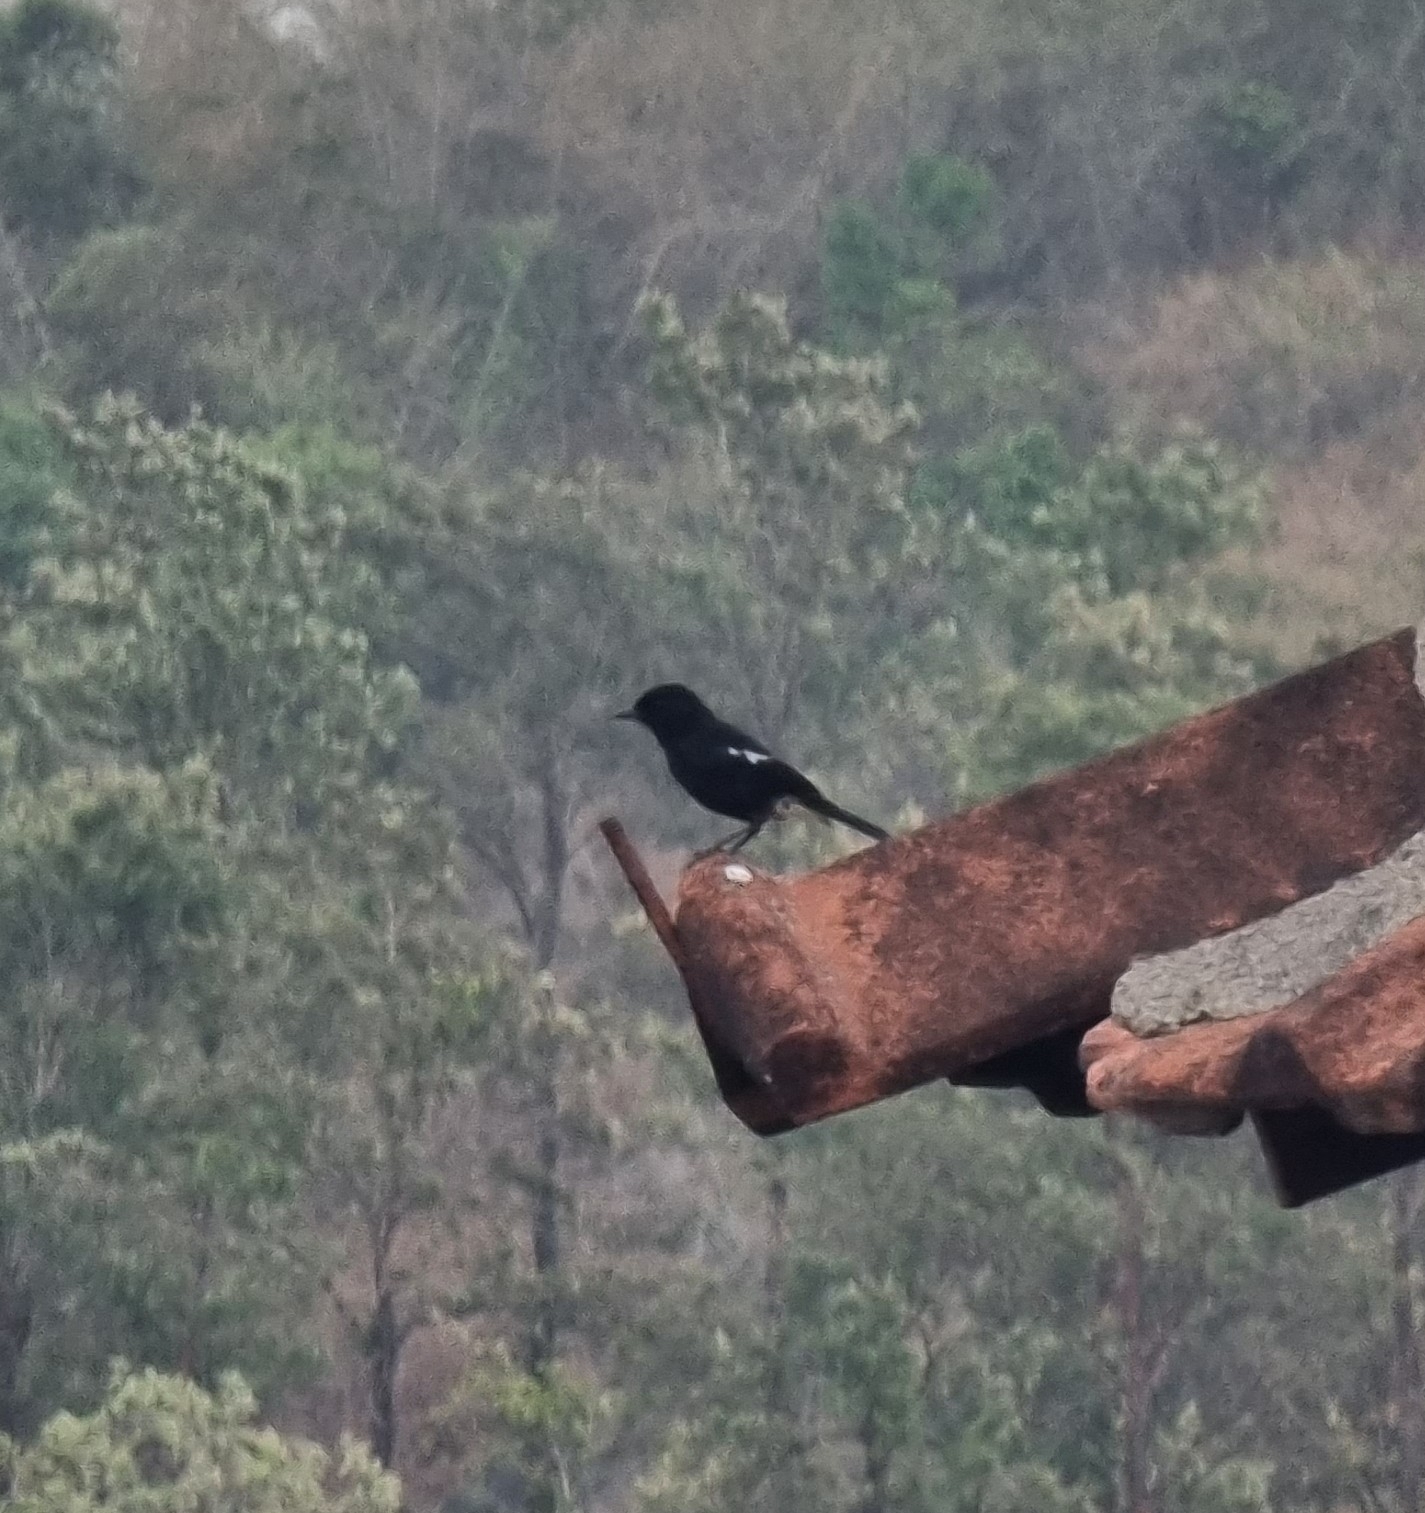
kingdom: Animalia
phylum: Chordata
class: Aves
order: Passeriformes
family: Muscicapidae
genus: Saxicola
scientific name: Saxicola caprata
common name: Pied bush chat
